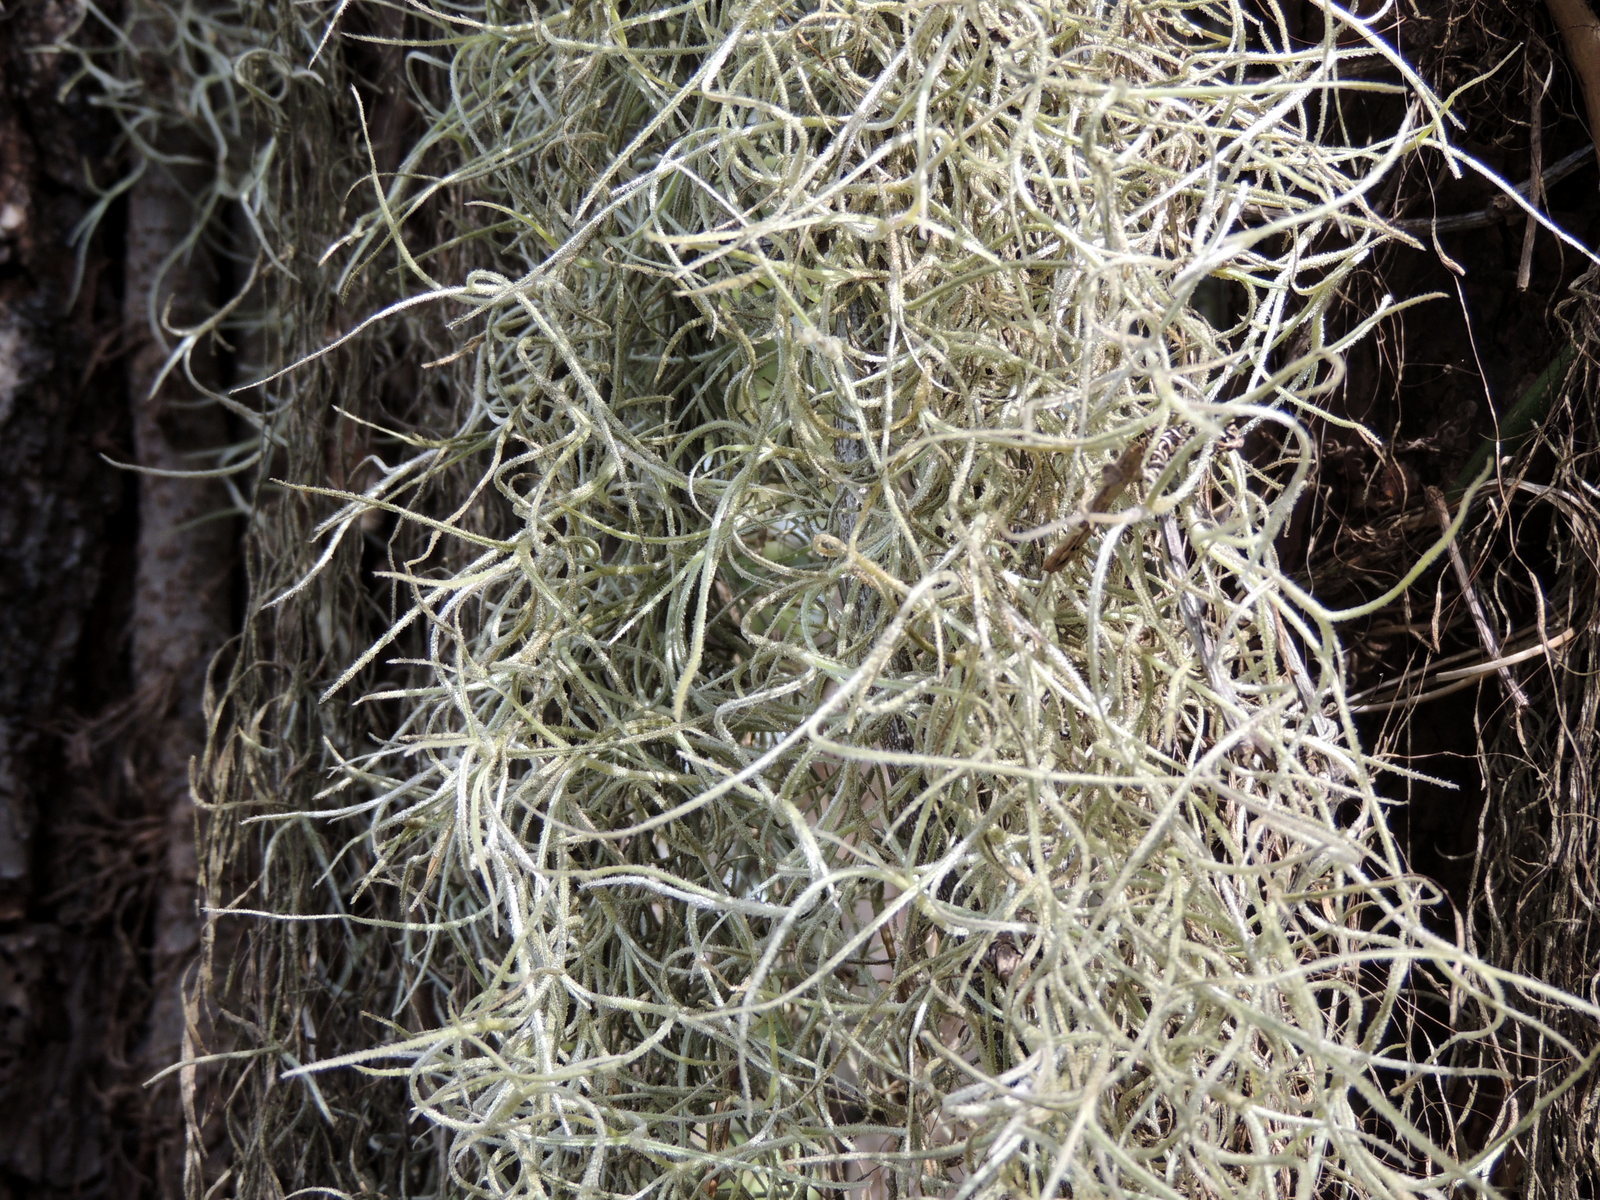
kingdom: Plantae
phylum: Tracheophyta
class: Liliopsida
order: Poales
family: Bromeliaceae
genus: Tillandsia
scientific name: Tillandsia usneoides
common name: Spanish moss
